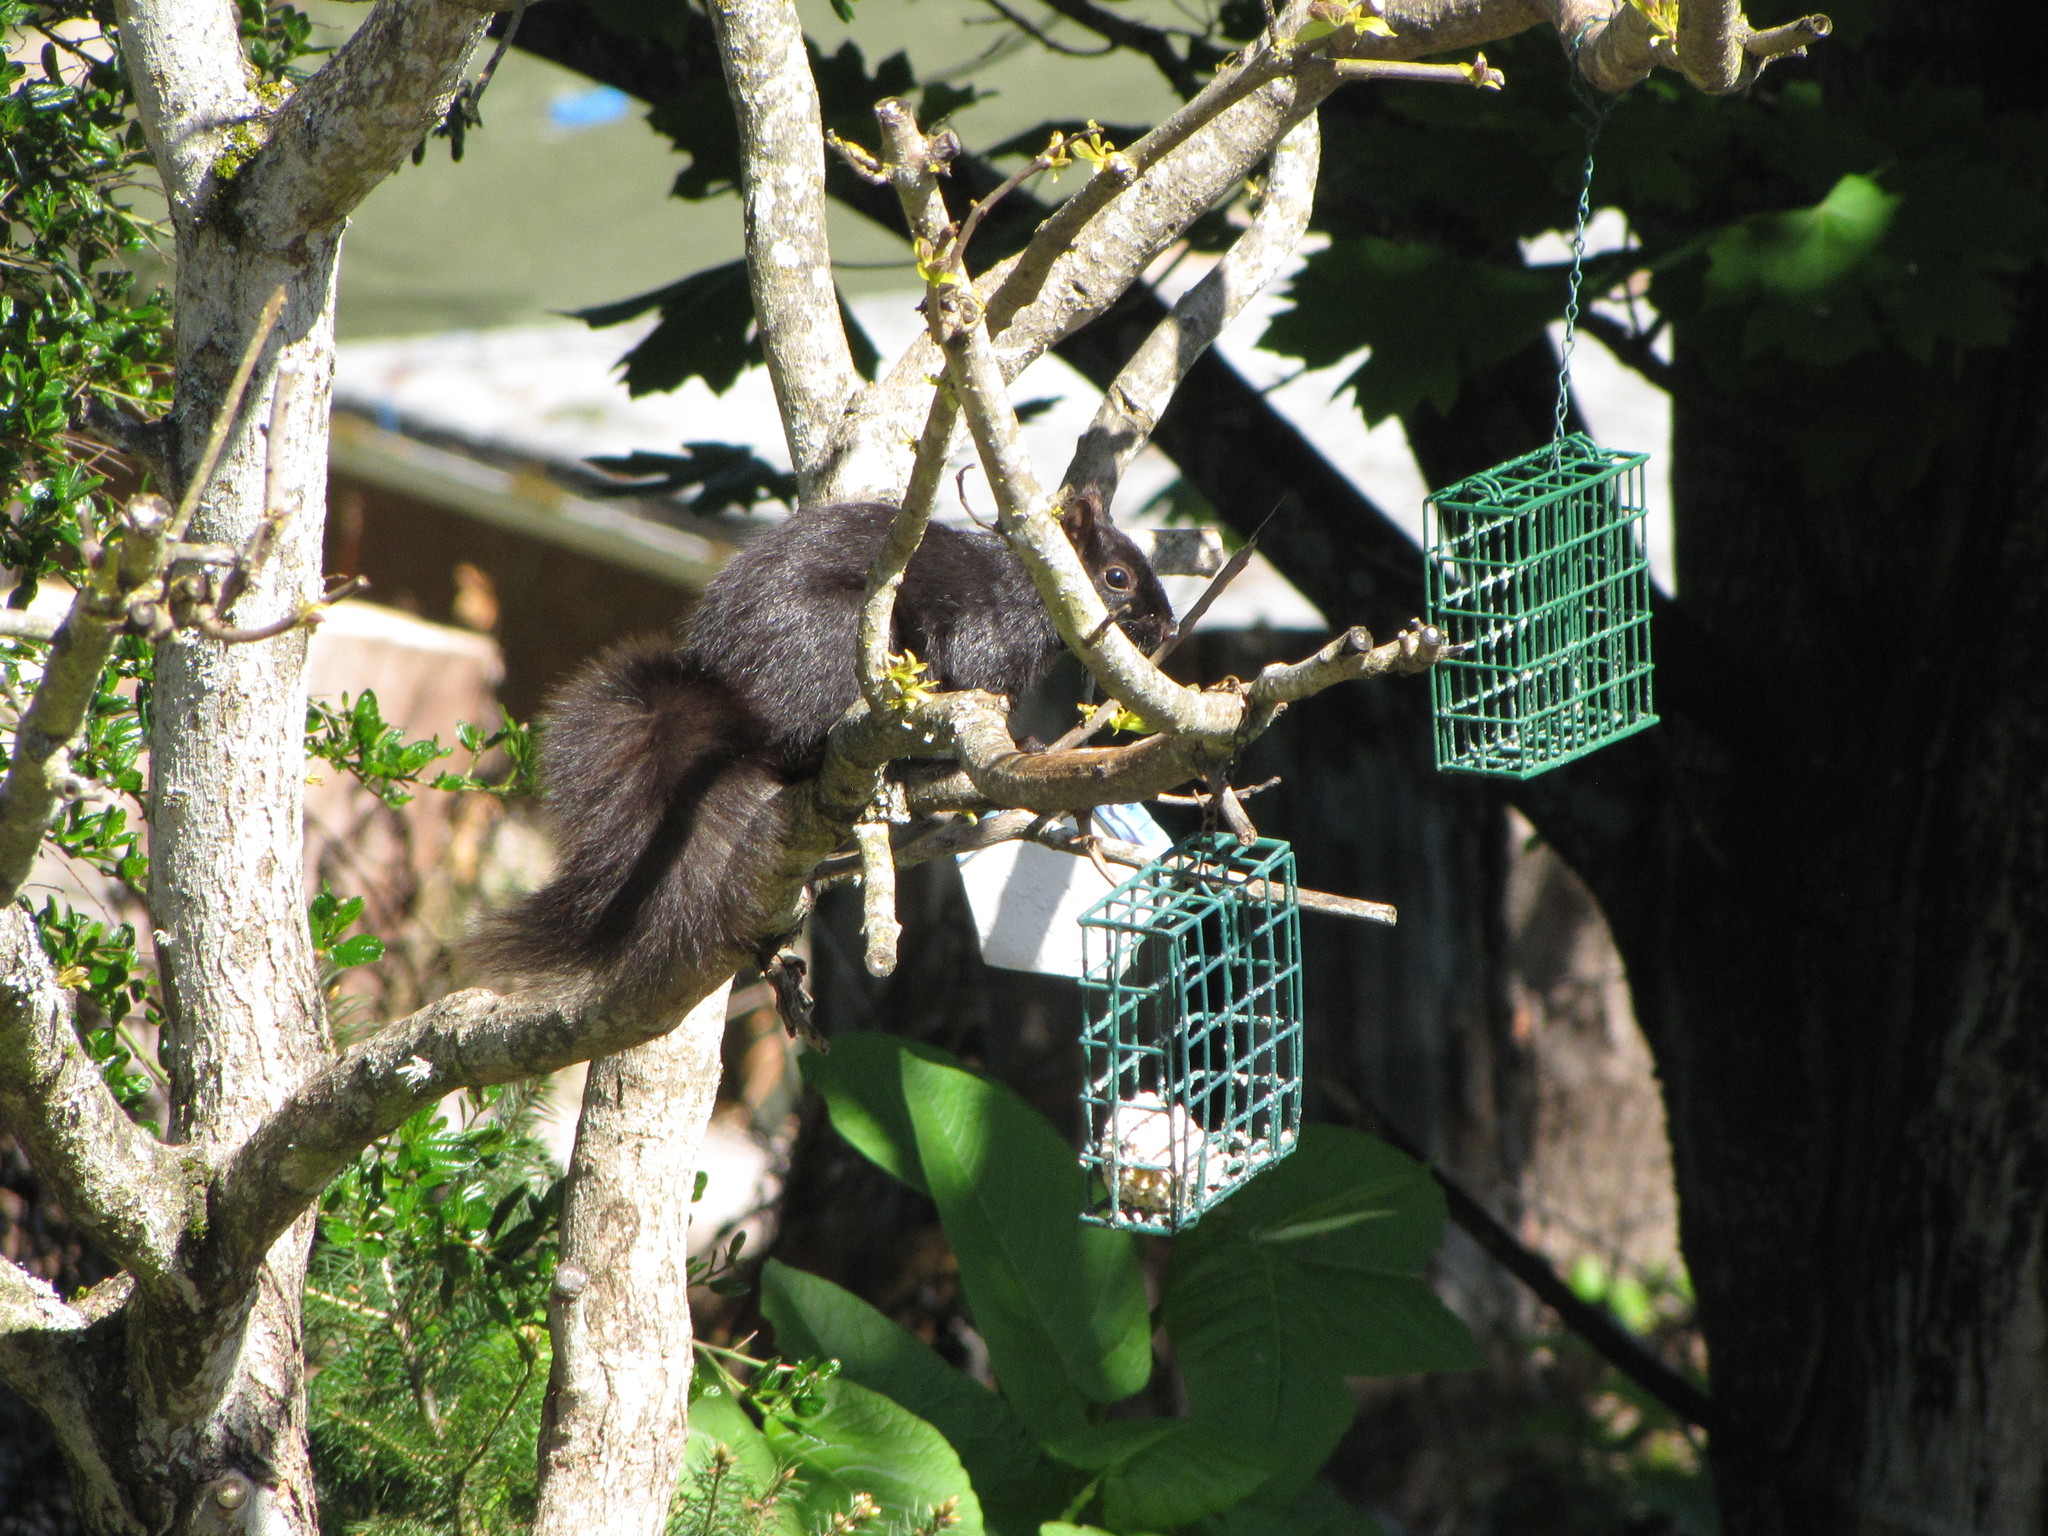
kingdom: Animalia
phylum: Chordata
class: Mammalia
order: Rodentia
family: Sciuridae
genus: Sciurus
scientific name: Sciurus carolinensis
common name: Eastern gray squirrel
